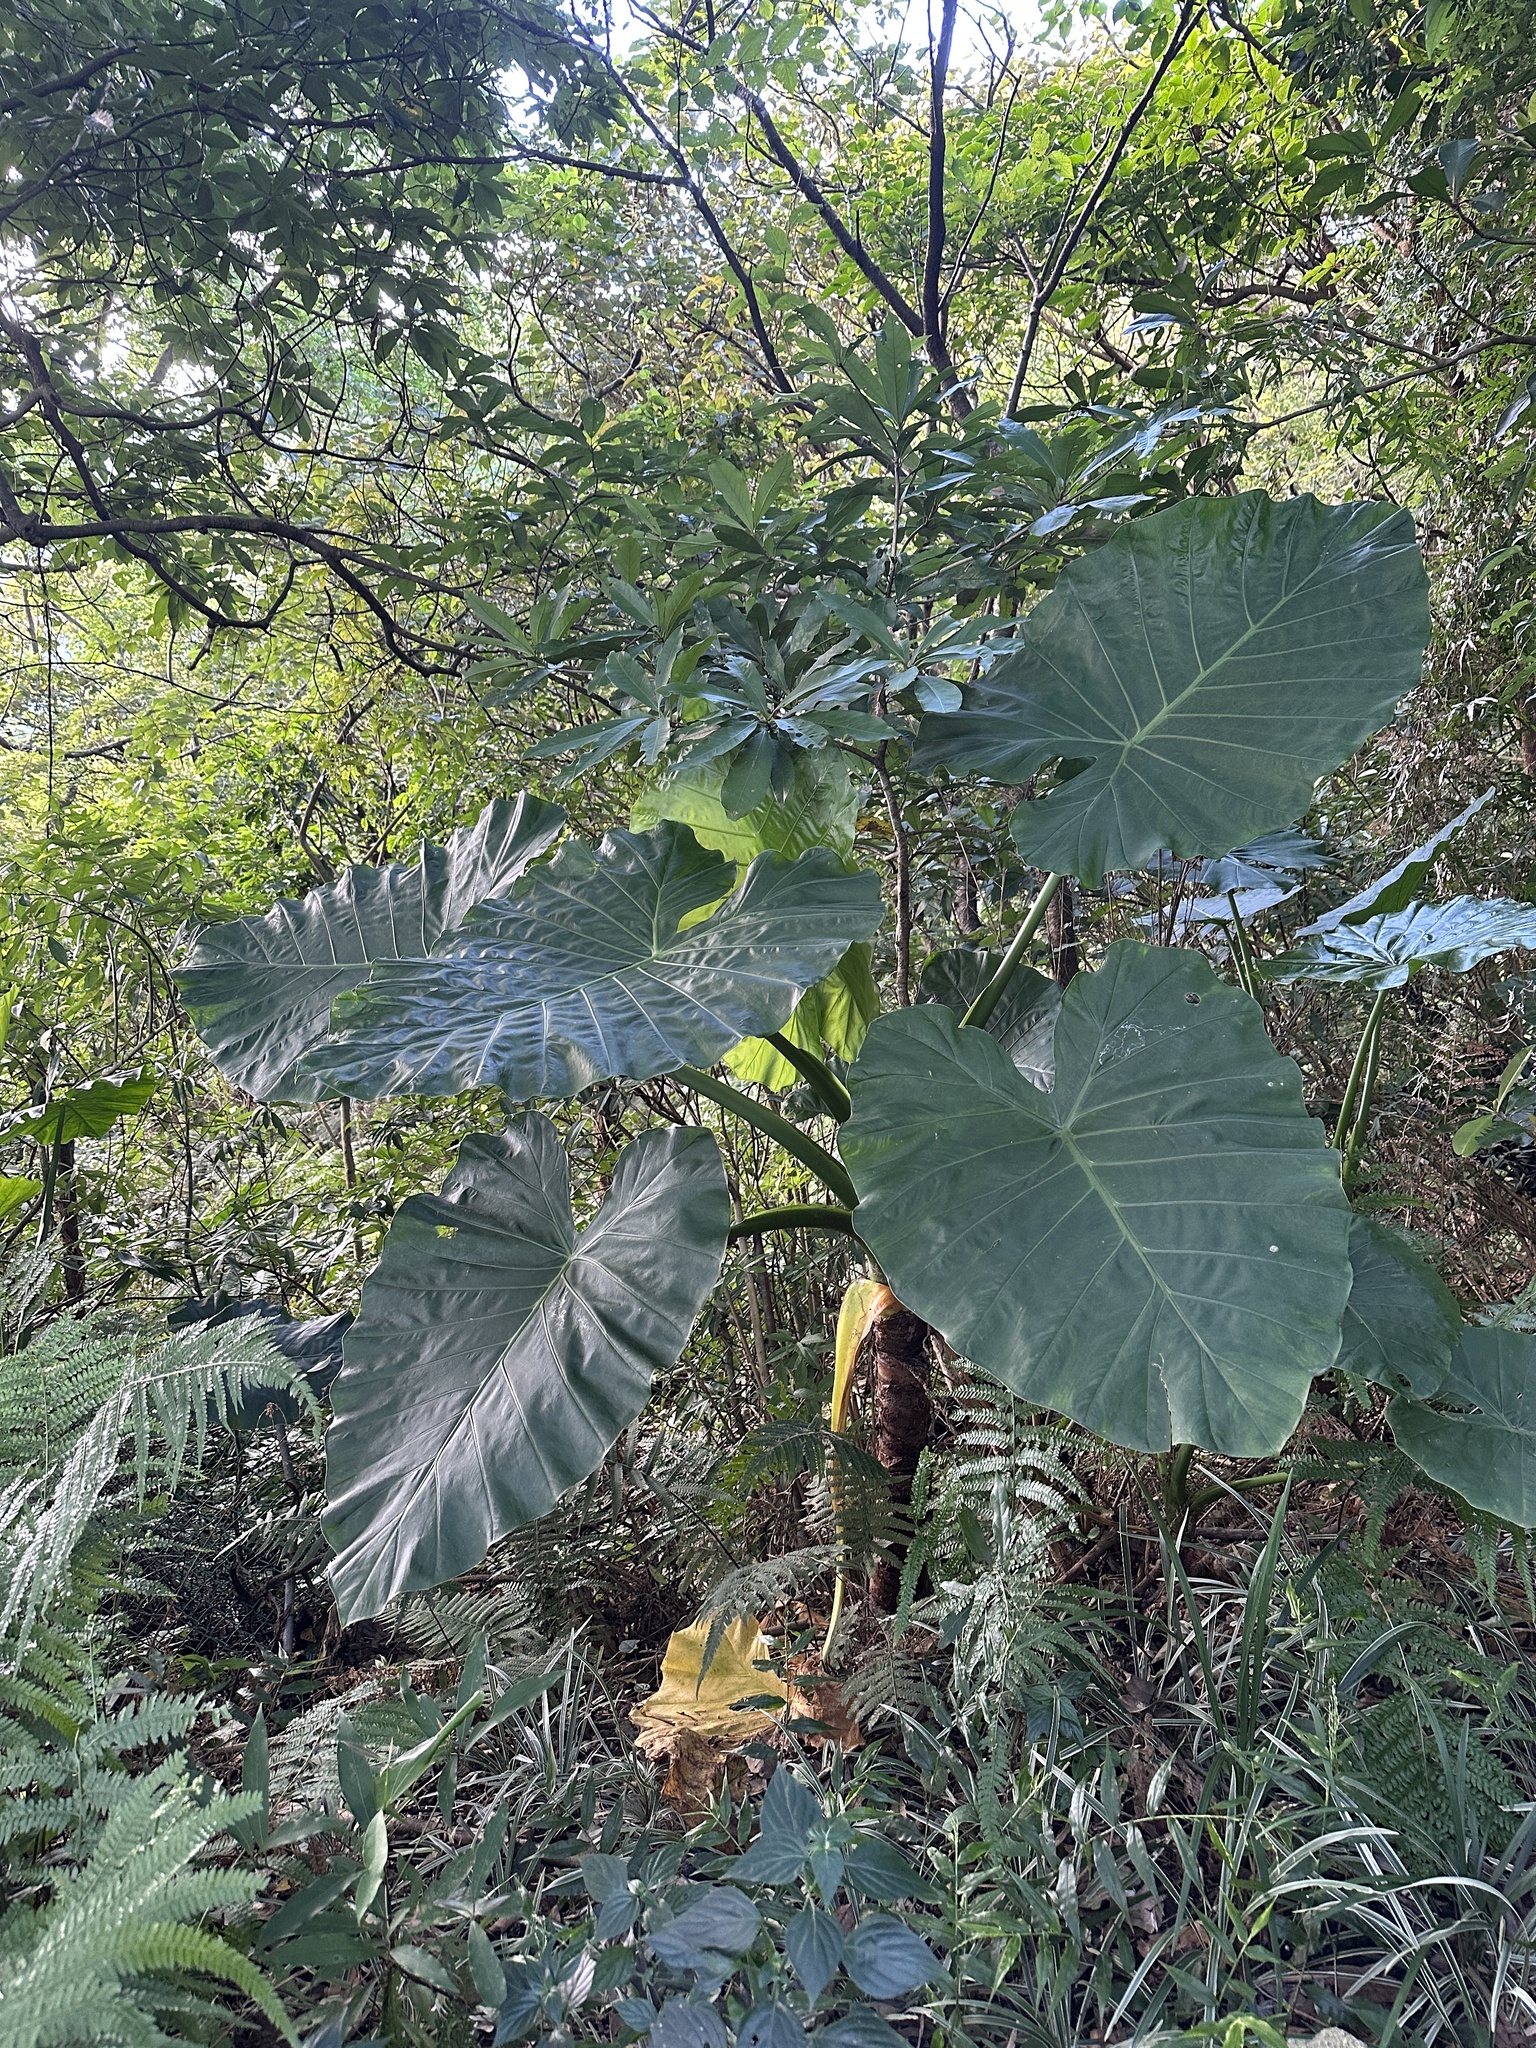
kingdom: Plantae
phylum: Tracheophyta
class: Liliopsida
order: Alismatales
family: Araceae
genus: Alocasia
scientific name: Alocasia odora
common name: Asian taro
